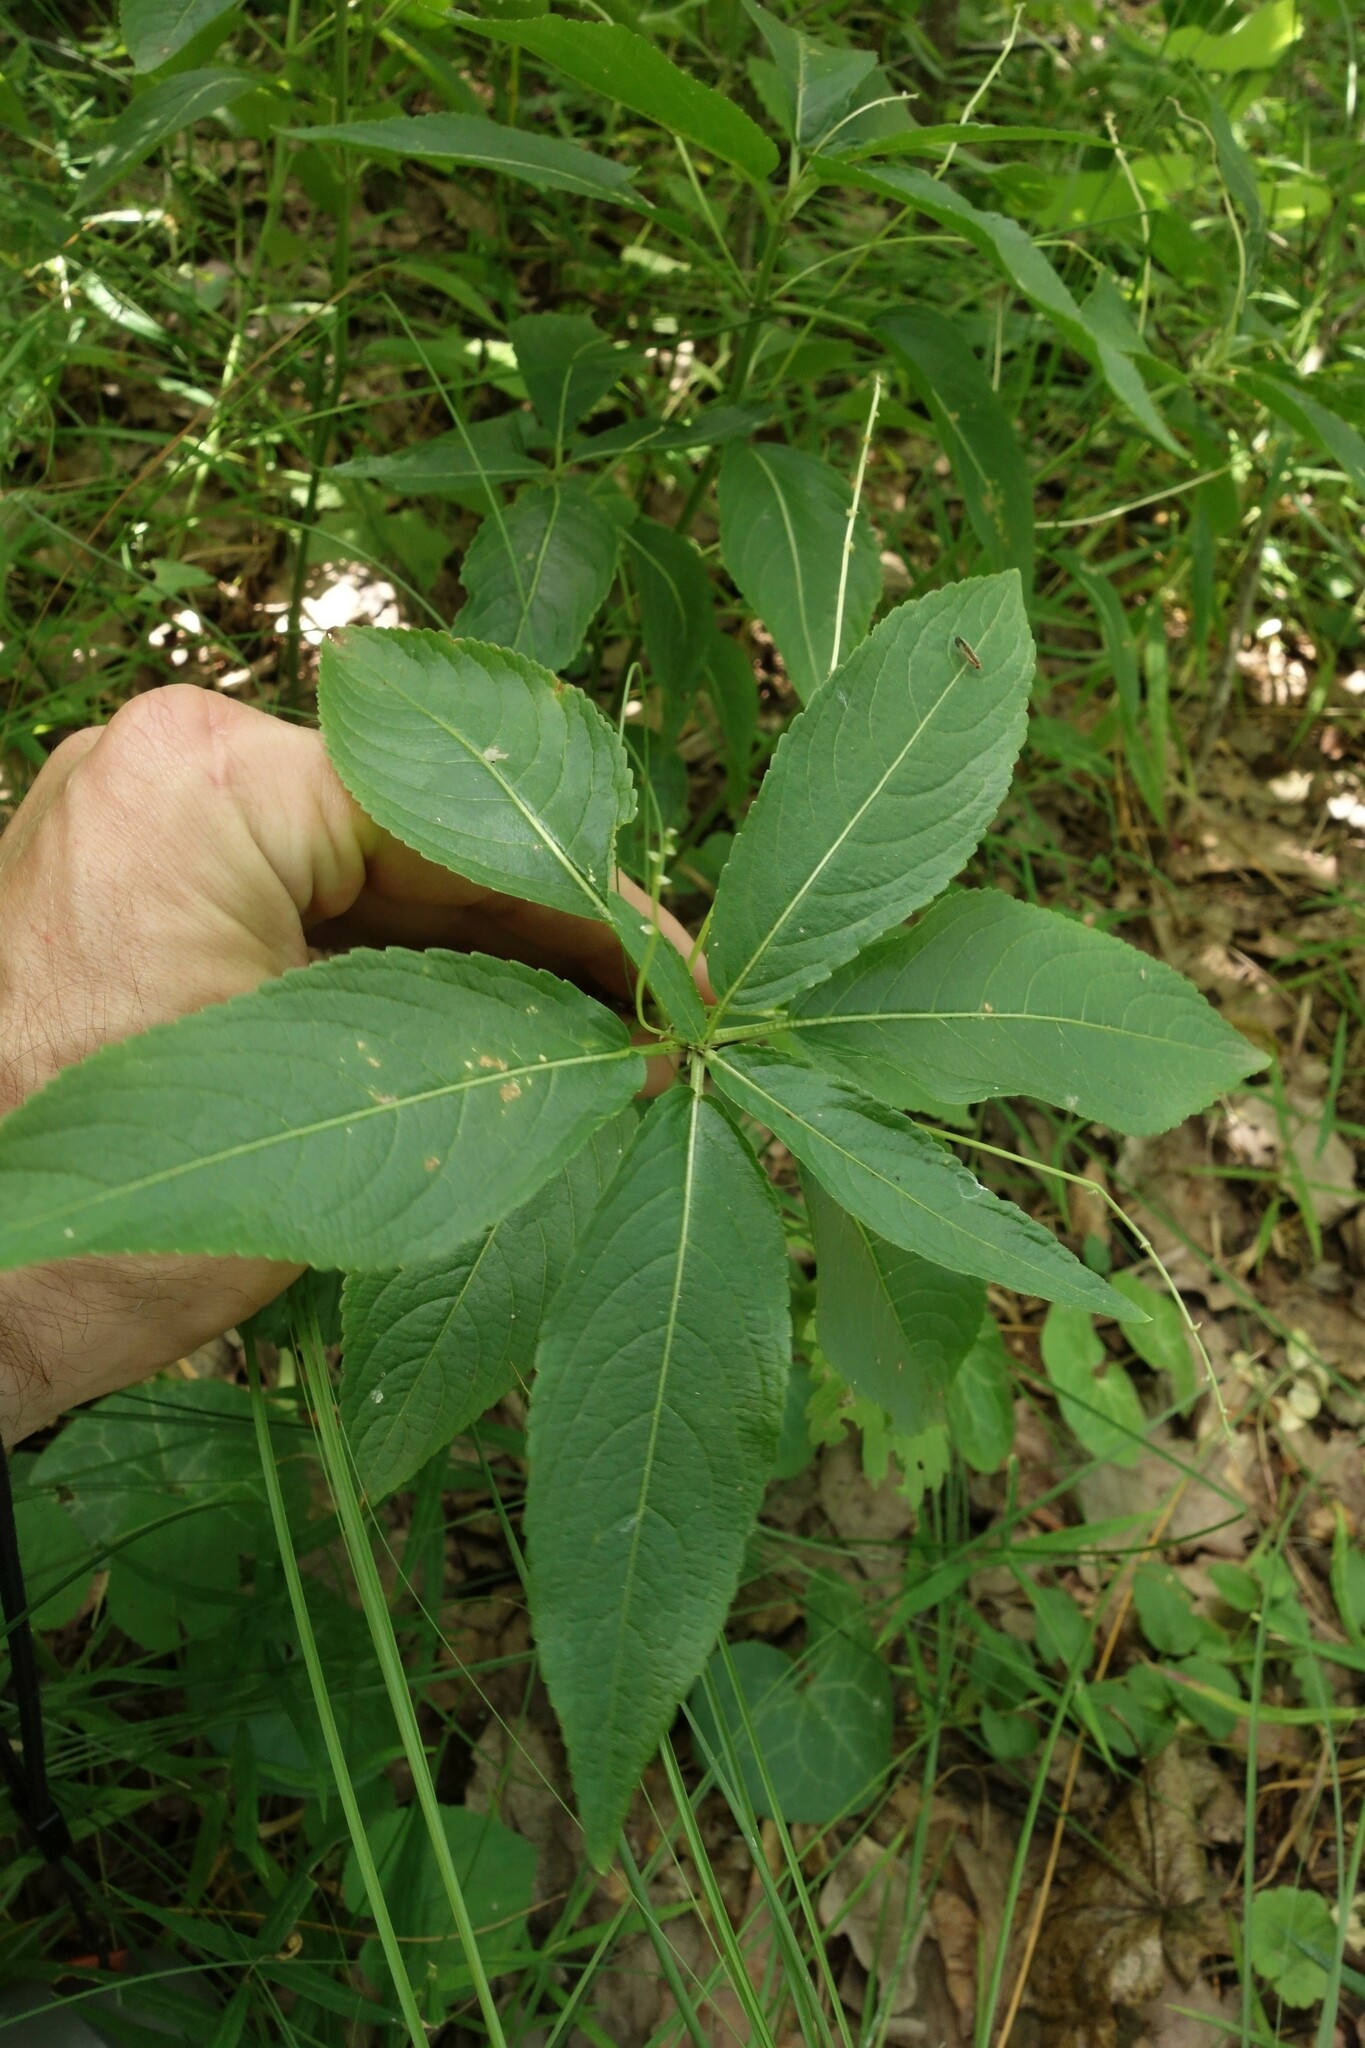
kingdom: Plantae
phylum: Tracheophyta
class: Magnoliopsida
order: Malpighiales
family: Euphorbiaceae
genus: Mercurialis
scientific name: Mercurialis perennis
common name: Dog mercury
